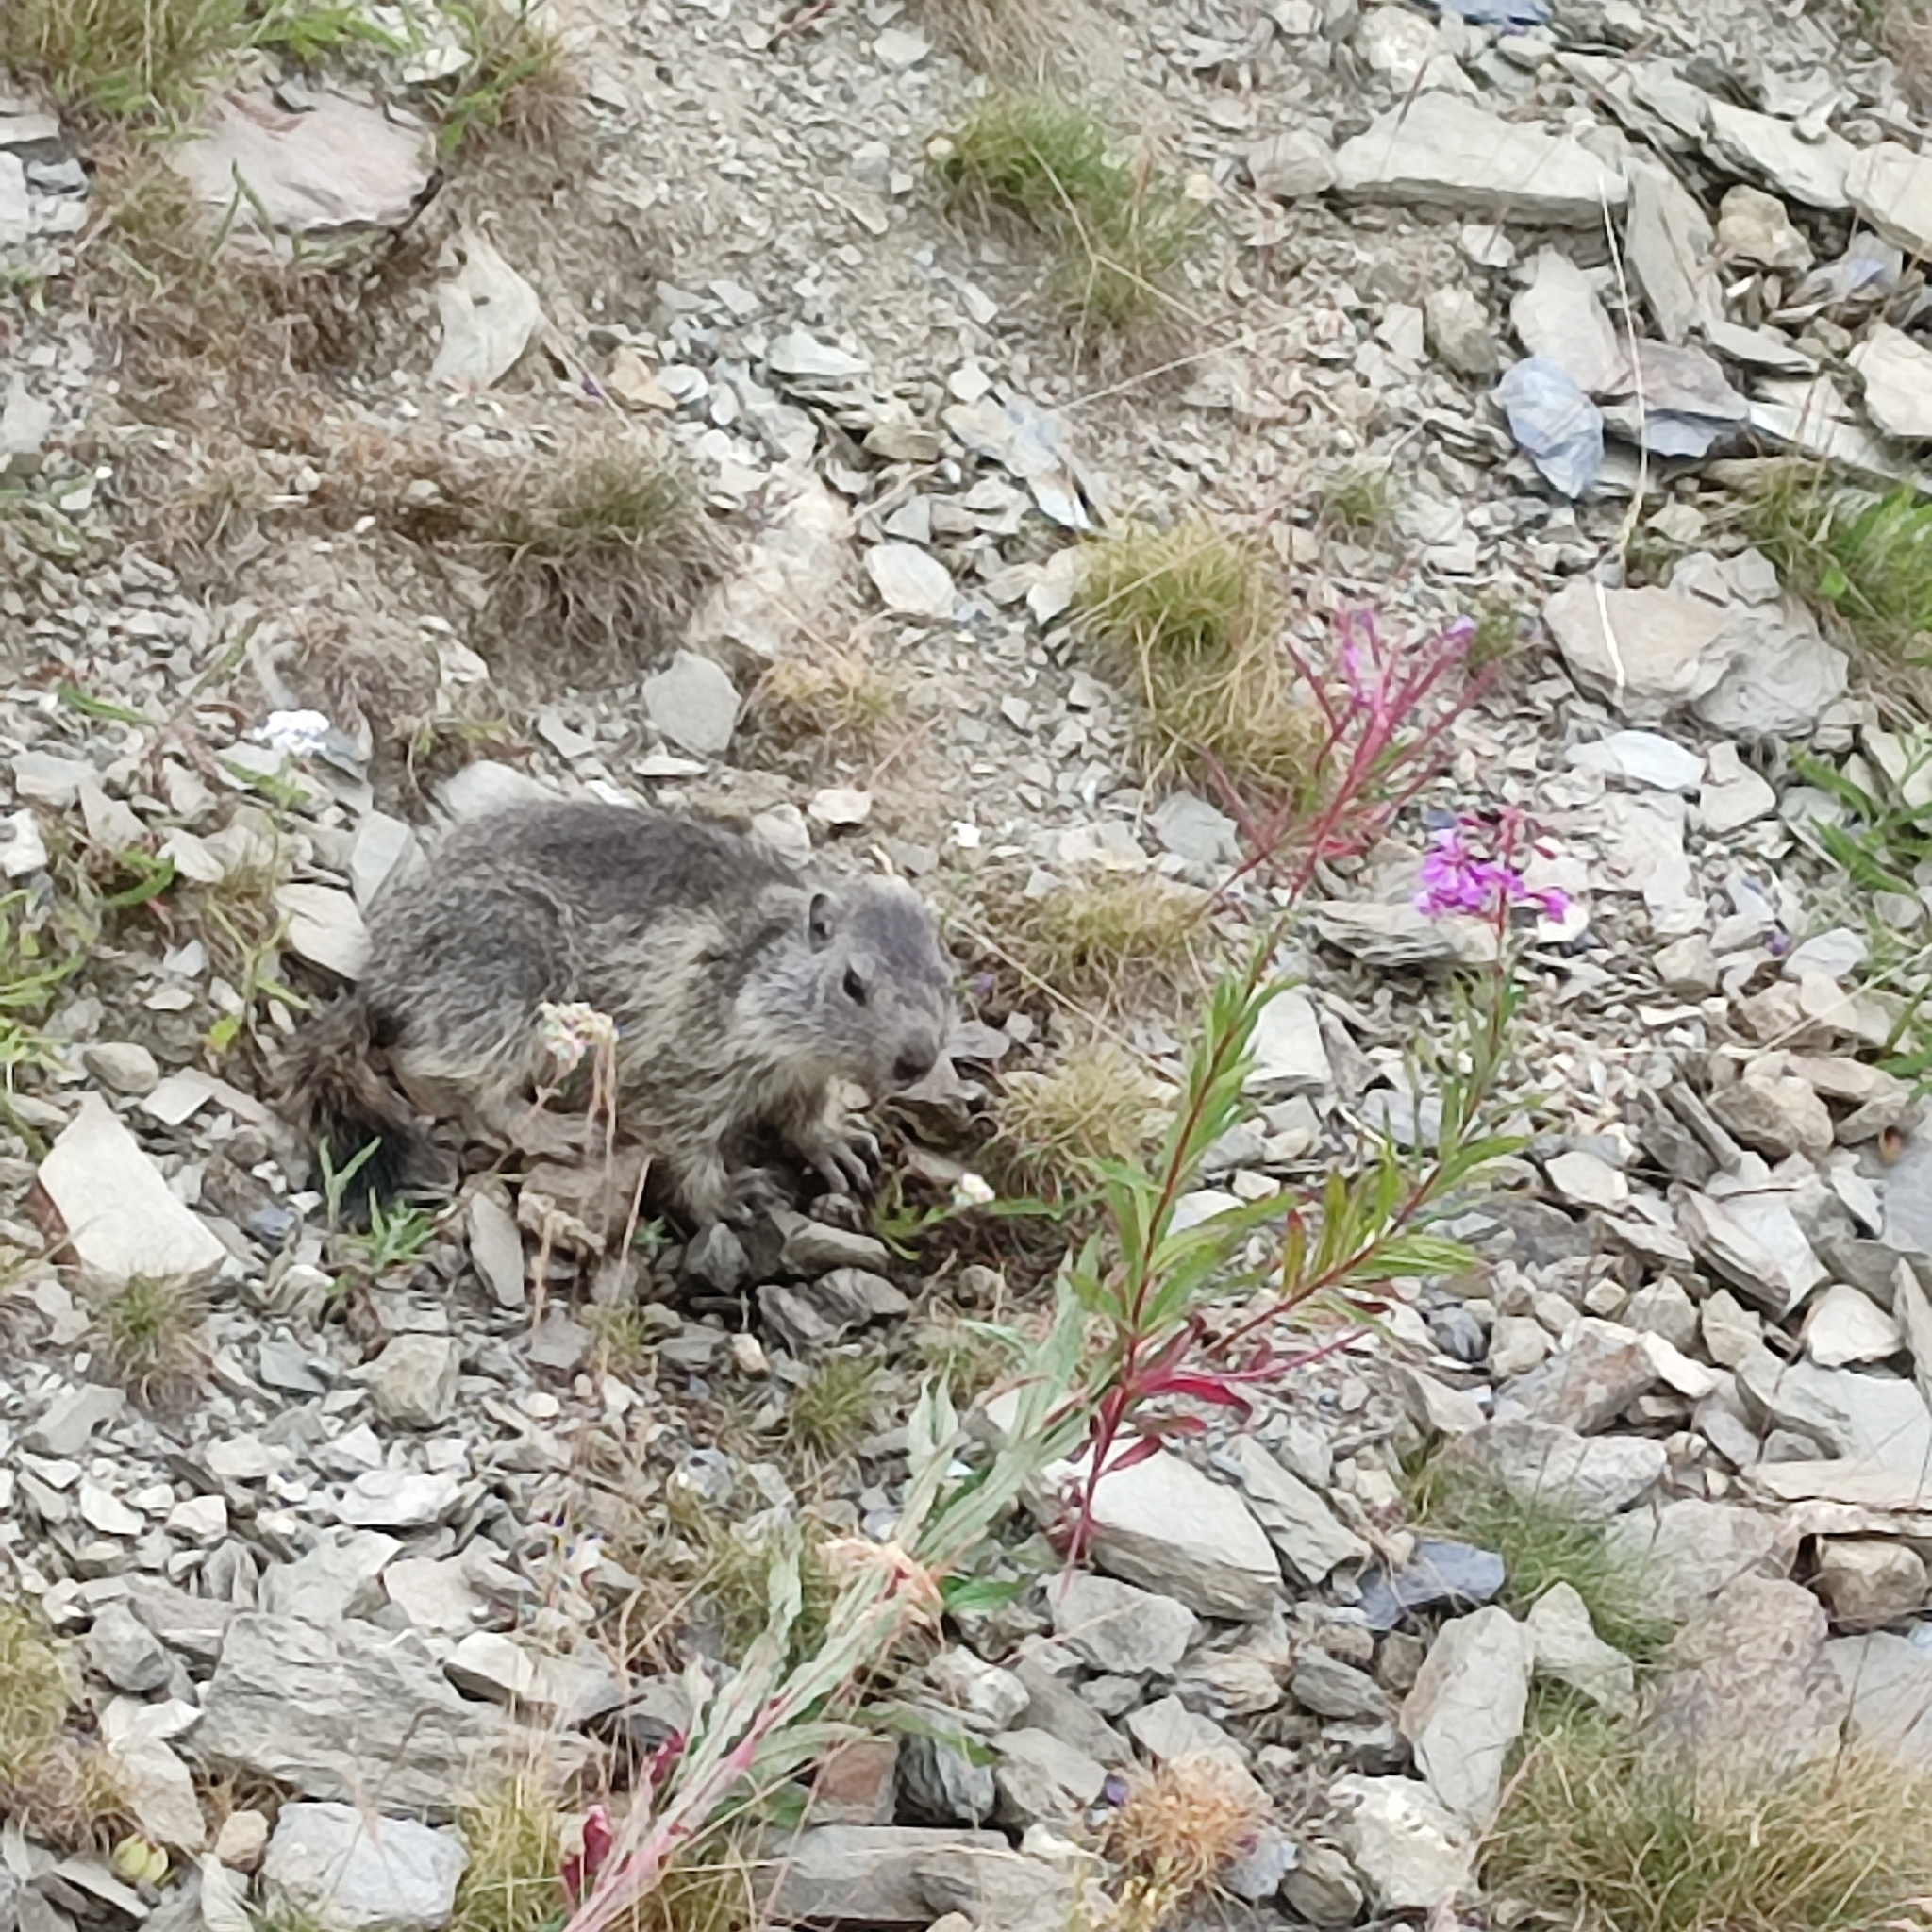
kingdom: Animalia
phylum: Chordata
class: Mammalia
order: Rodentia
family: Sciuridae
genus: Marmota
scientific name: Marmota marmota
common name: Alpine marmot
